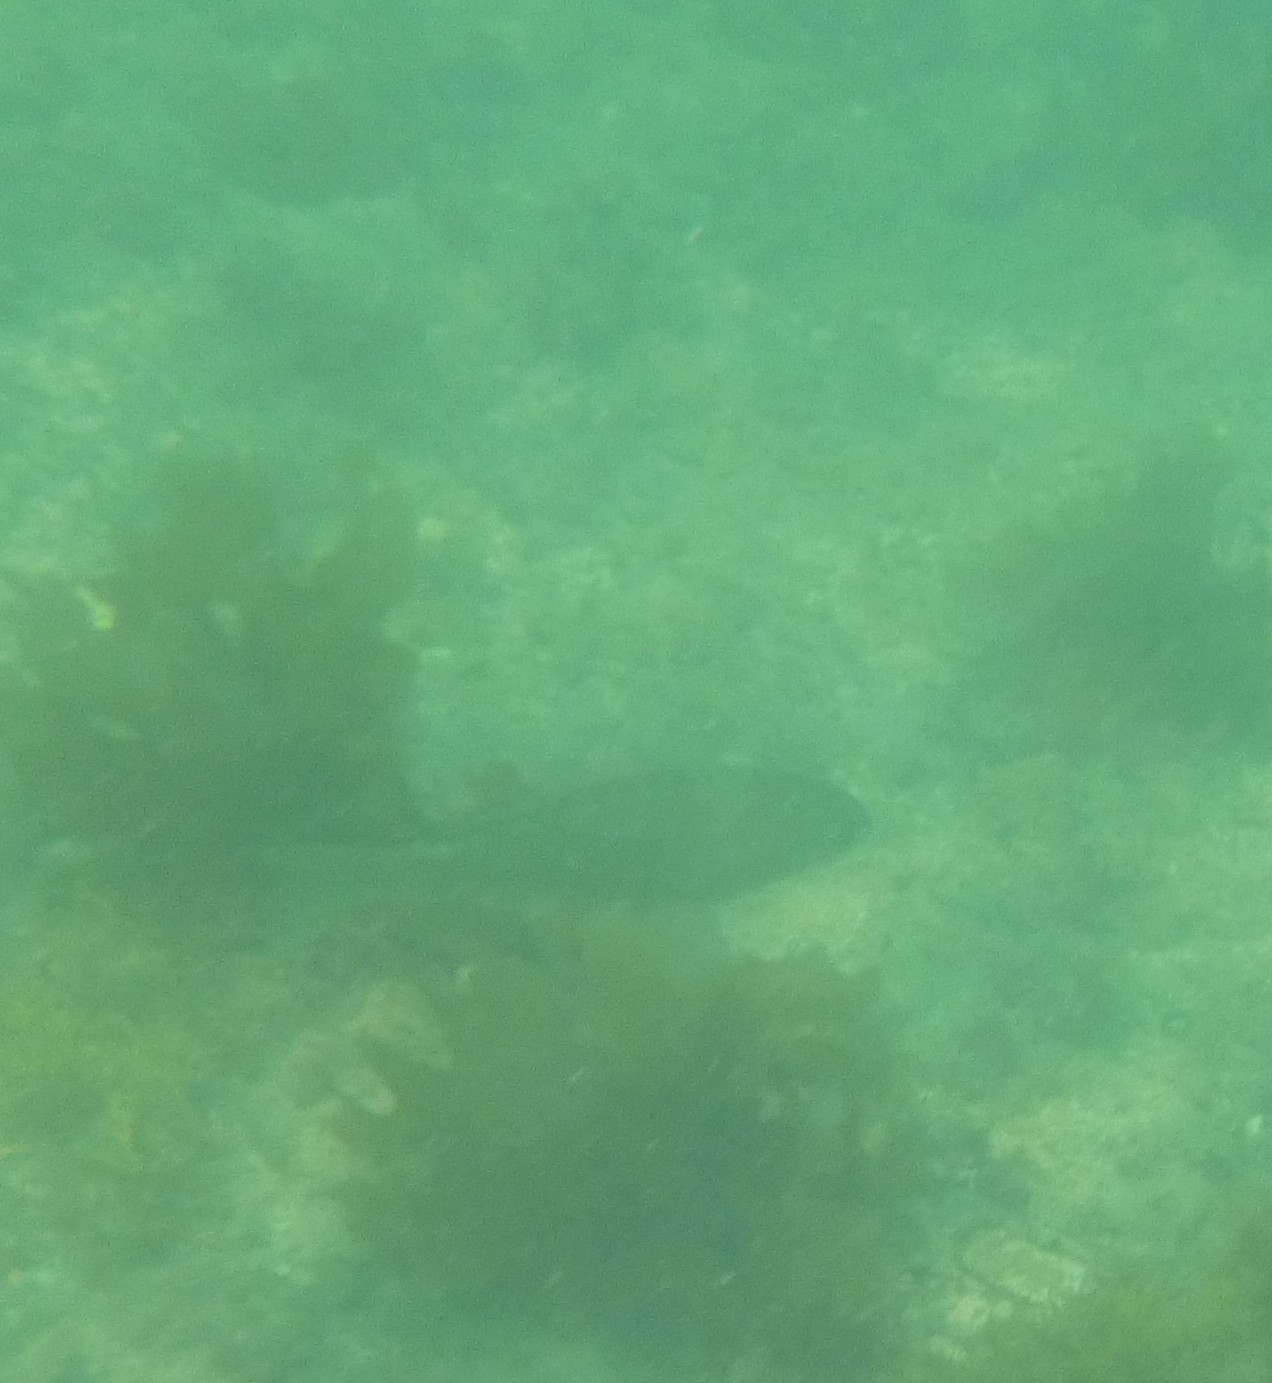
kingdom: Animalia
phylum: Chordata
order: Perciformes
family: Kyphosidae
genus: Girella
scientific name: Girella tricuspidata
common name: Parore
